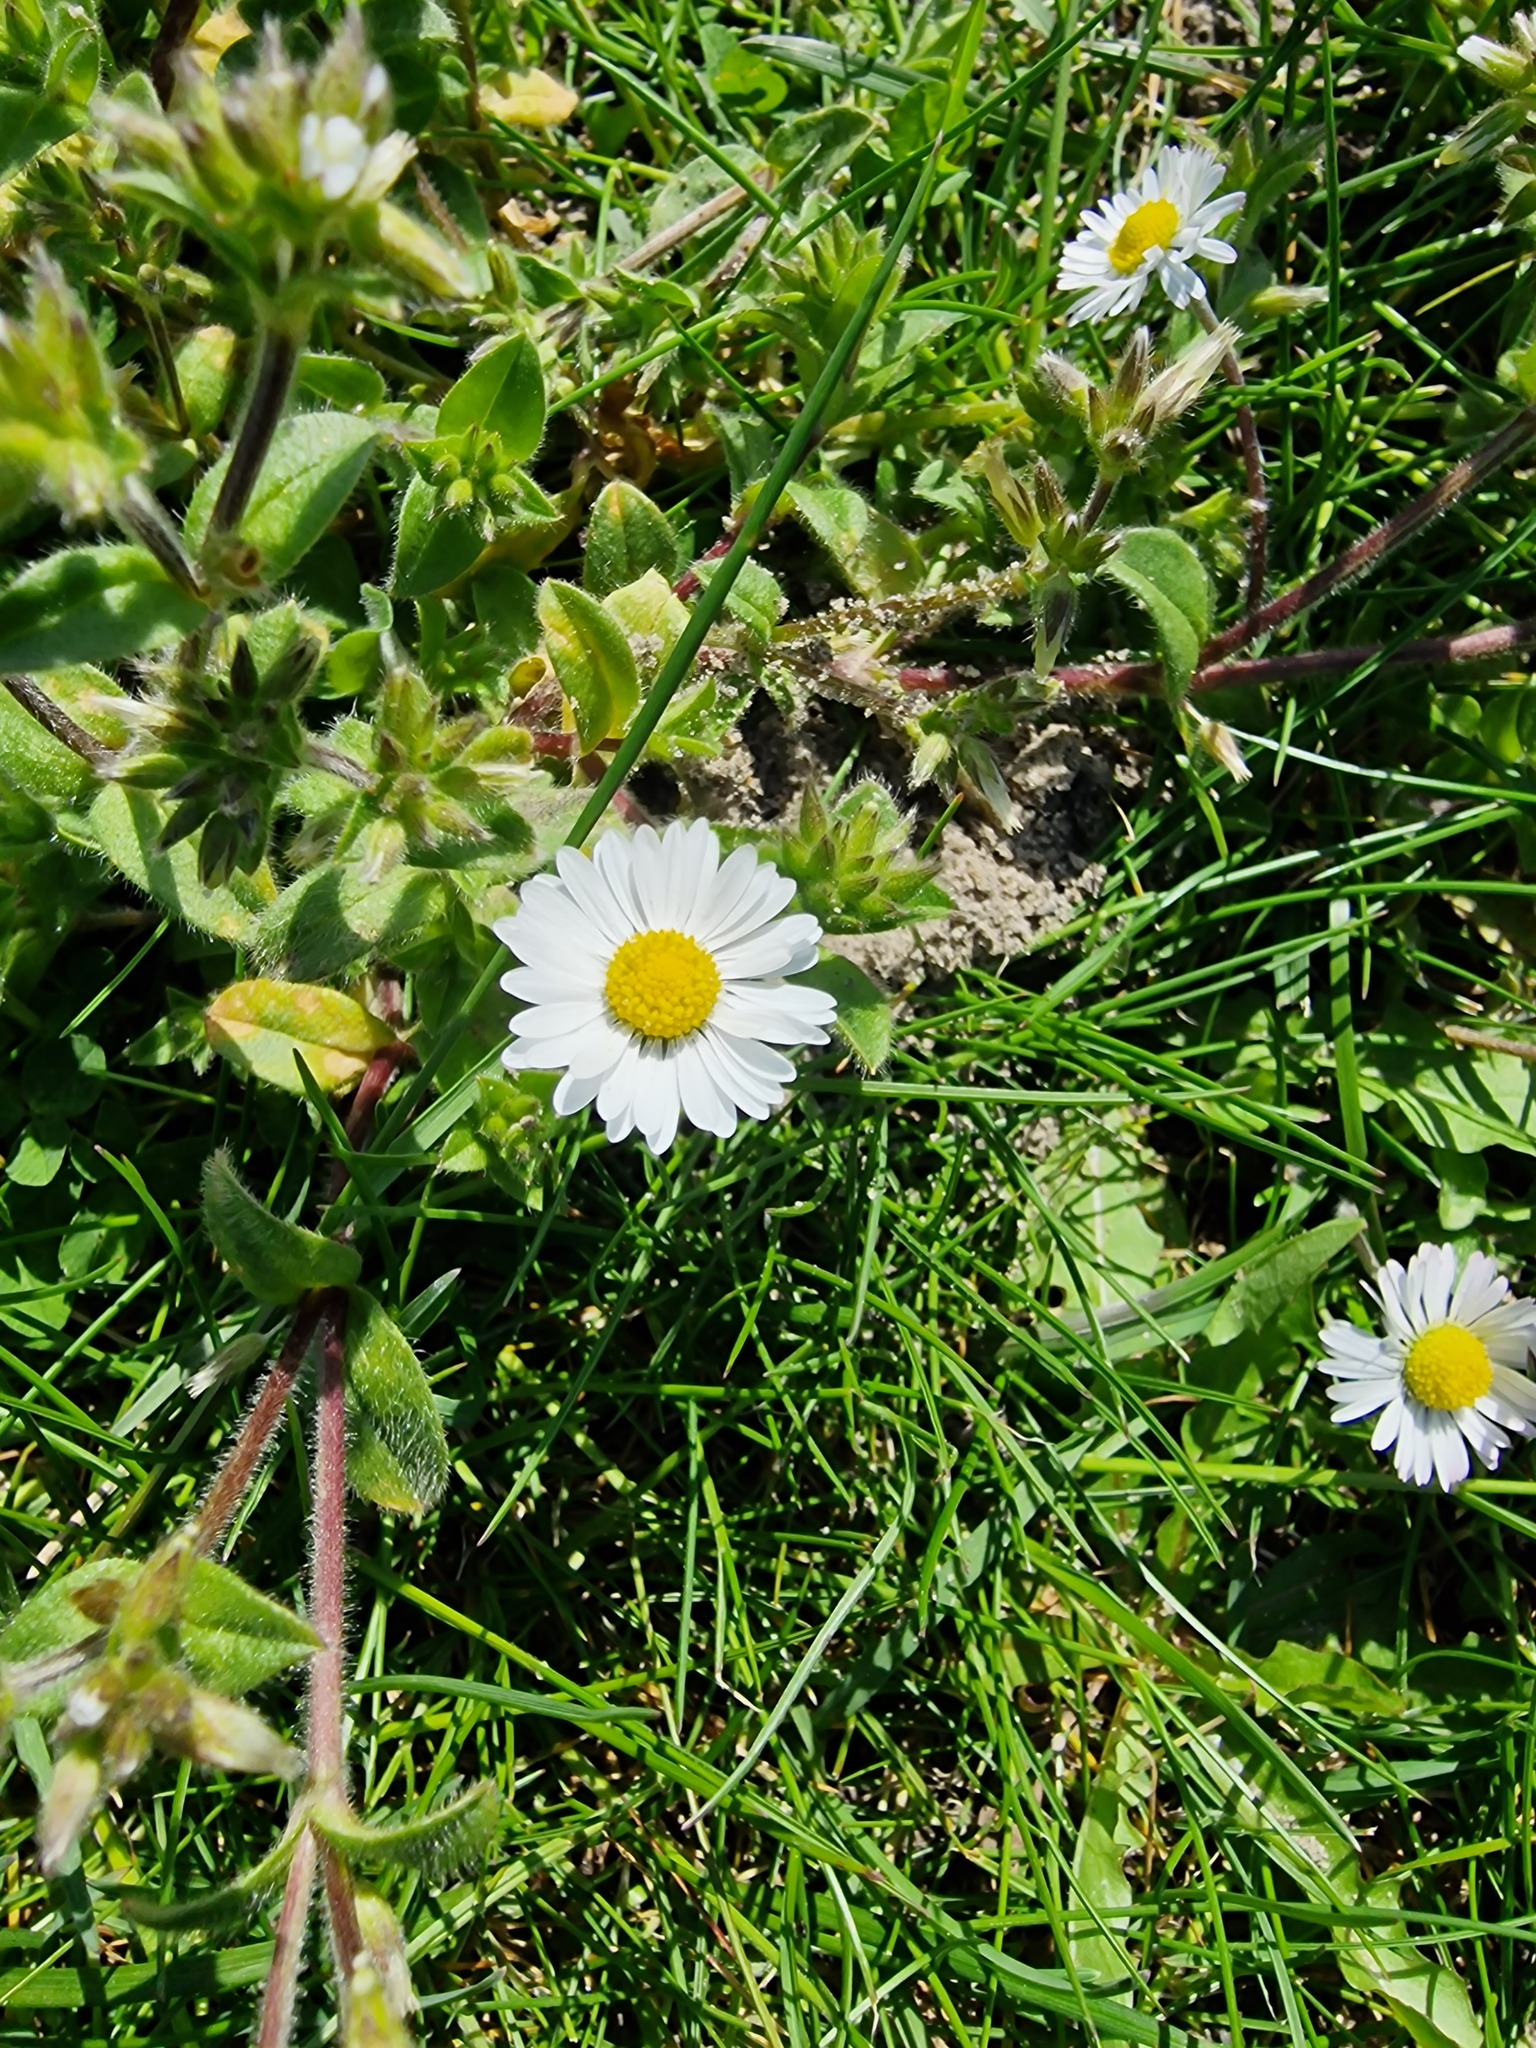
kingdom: Plantae
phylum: Tracheophyta
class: Magnoliopsida
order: Asterales
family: Asteraceae
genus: Bellis
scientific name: Bellis perennis
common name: Lawndaisy
